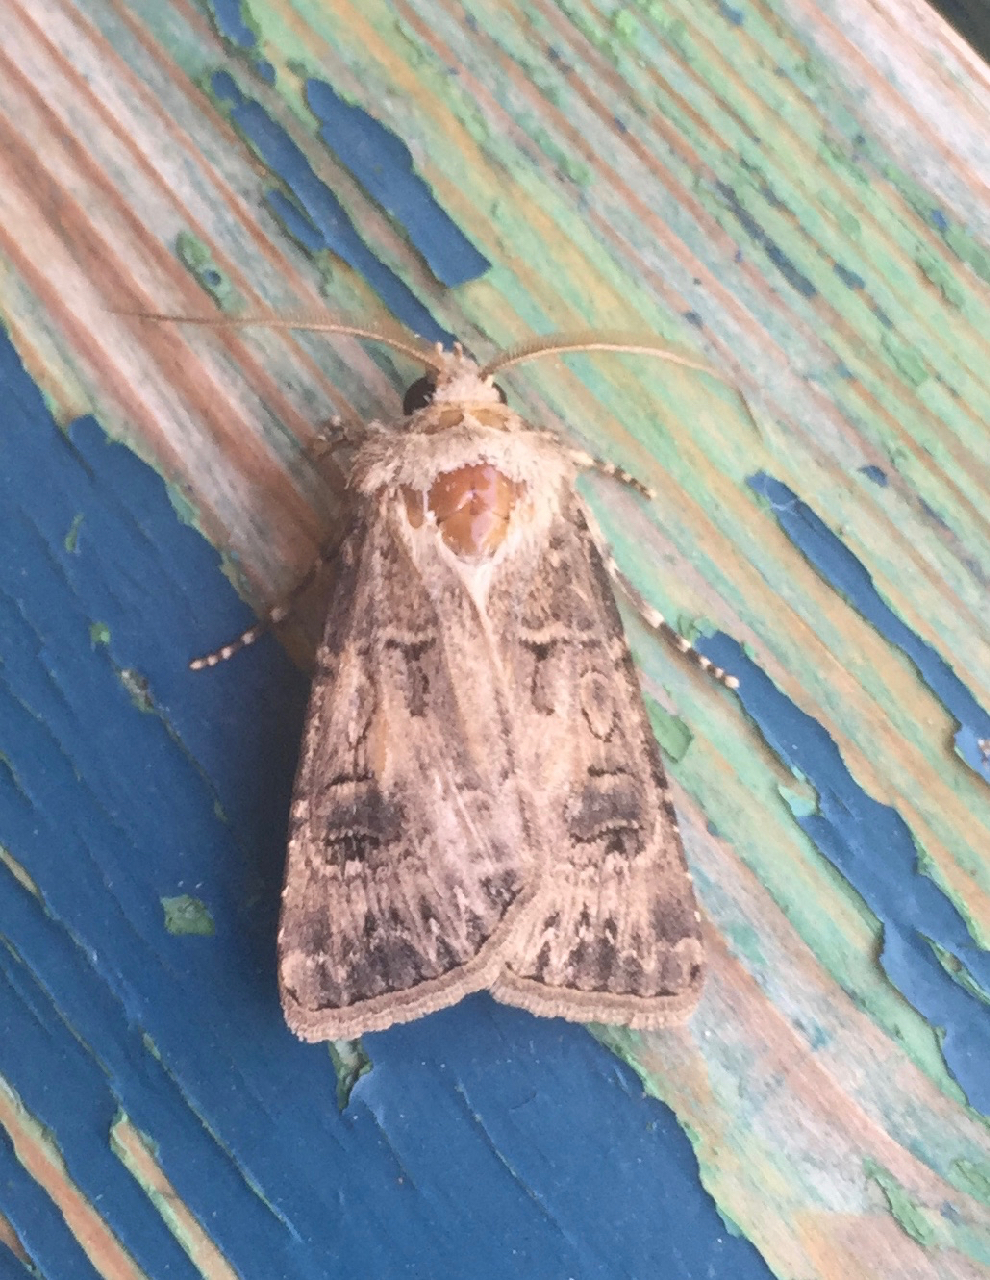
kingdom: Animalia
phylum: Arthropoda
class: Insecta
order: Lepidoptera
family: Noctuidae
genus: Agrotis
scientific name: Agrotis bigramma
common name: Great dart
